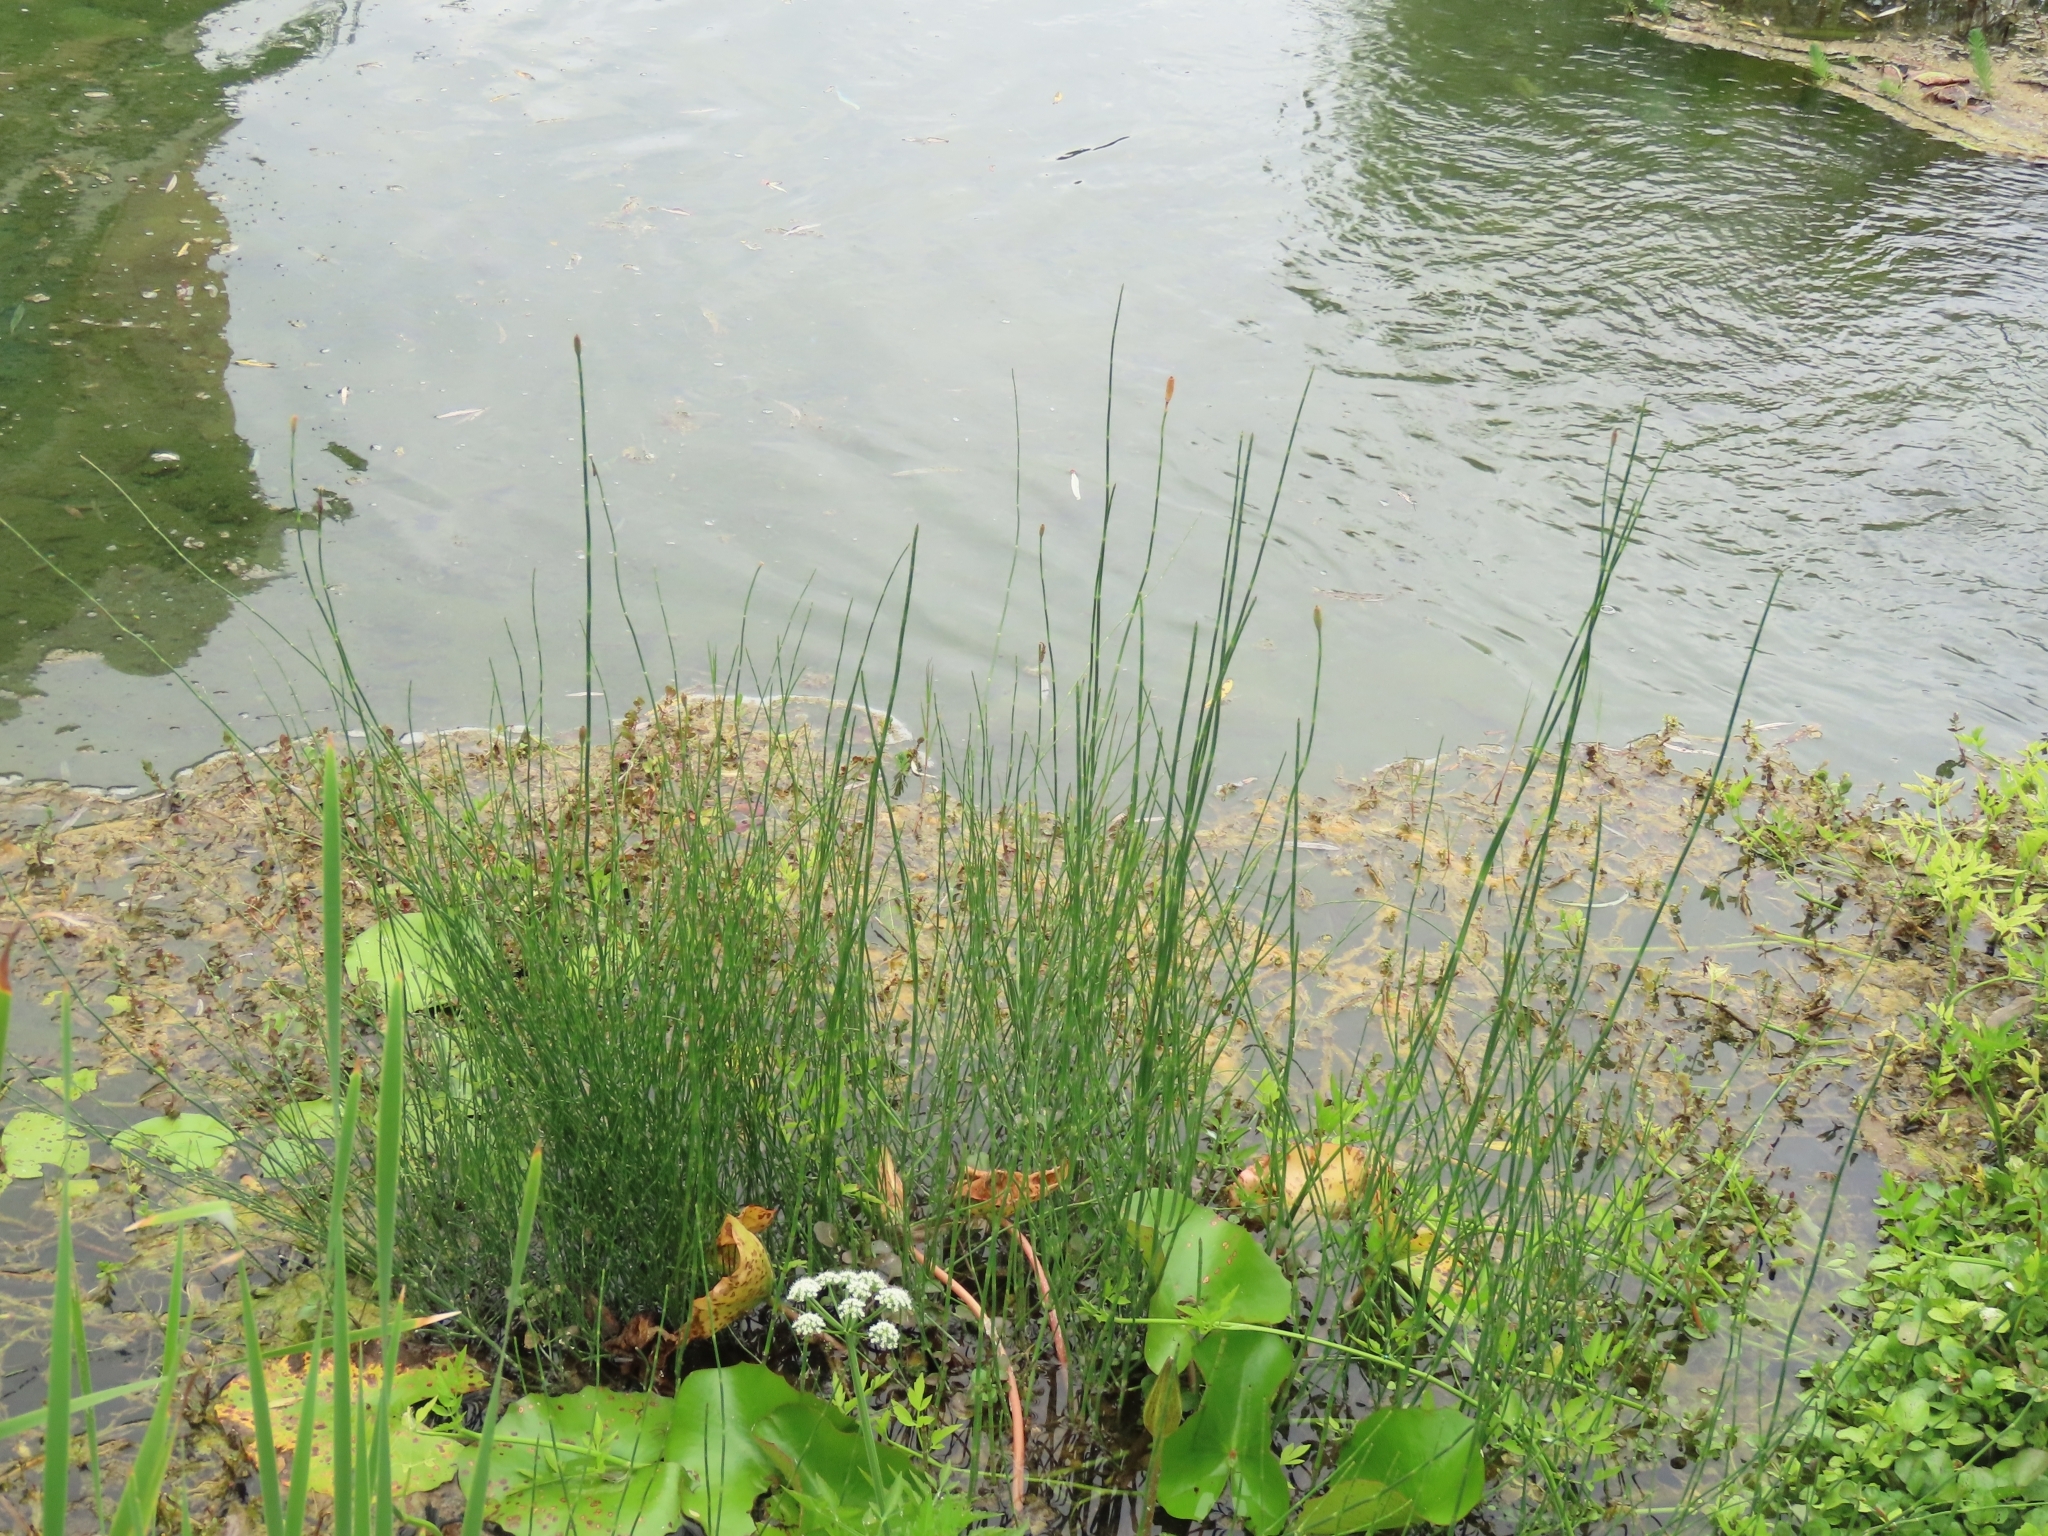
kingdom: Plantae
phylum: Tracheophyta
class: Polypodiopsida
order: Equisetales
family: Equisetaceae
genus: Equisetum
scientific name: Equisetum ramosissimum
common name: Branched horsetail
